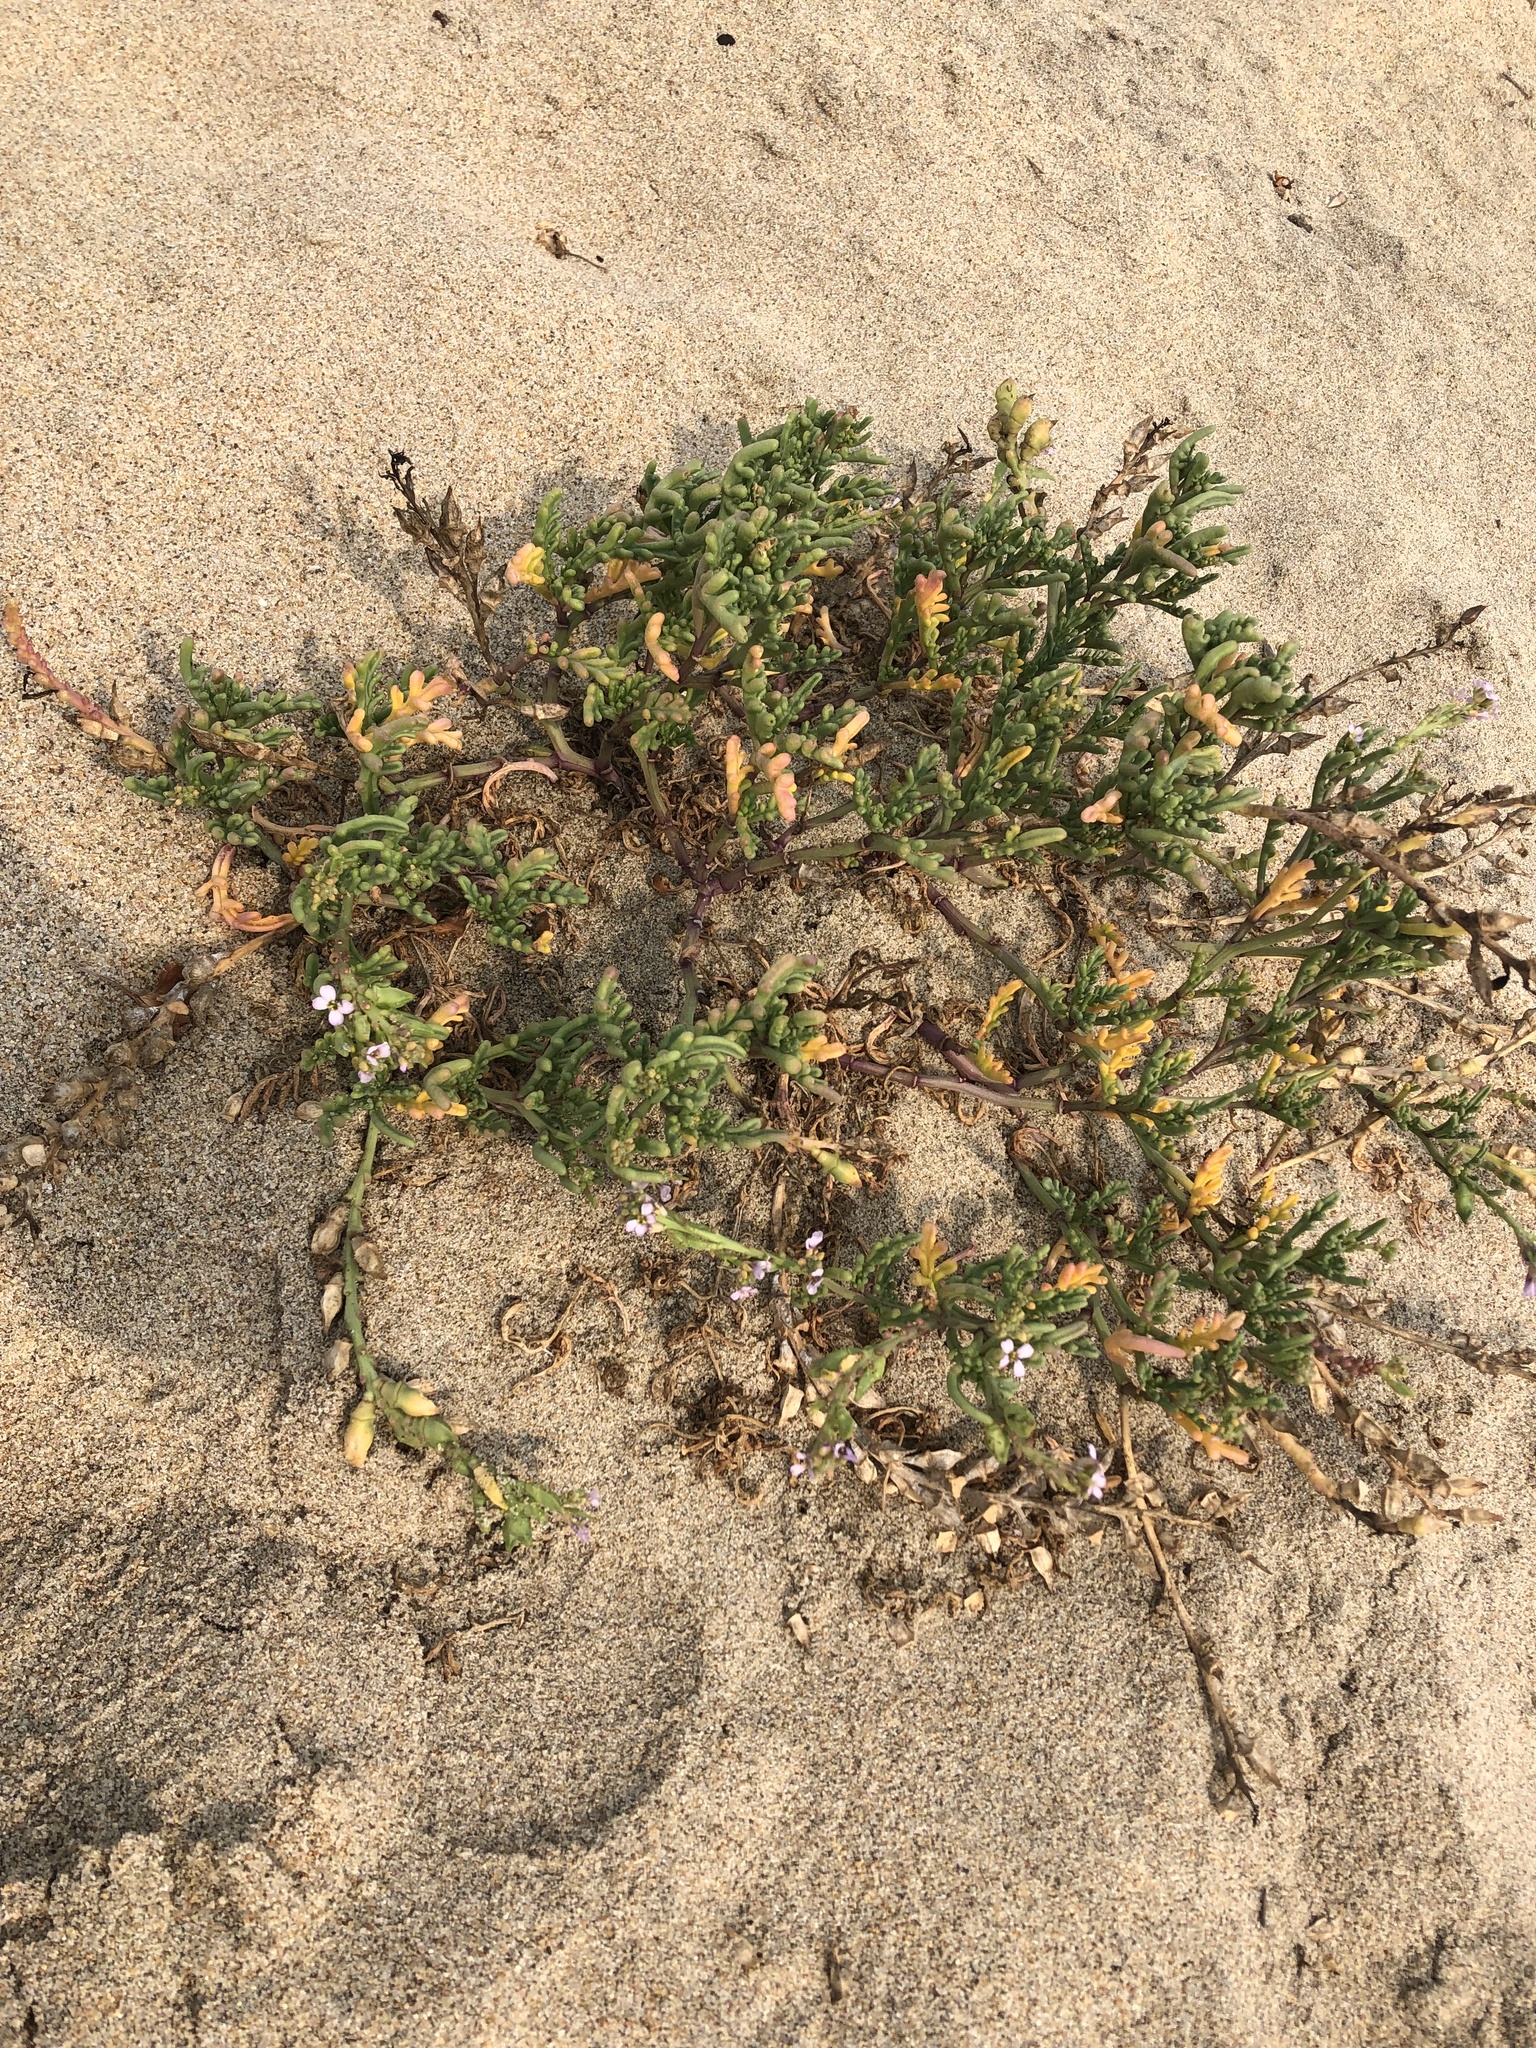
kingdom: Plantae
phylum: Tracheophyta
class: Magnoliopsida
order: Brassicales
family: Brassicaceae
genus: Cakile
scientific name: Cakile maritima
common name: Sea rocket
